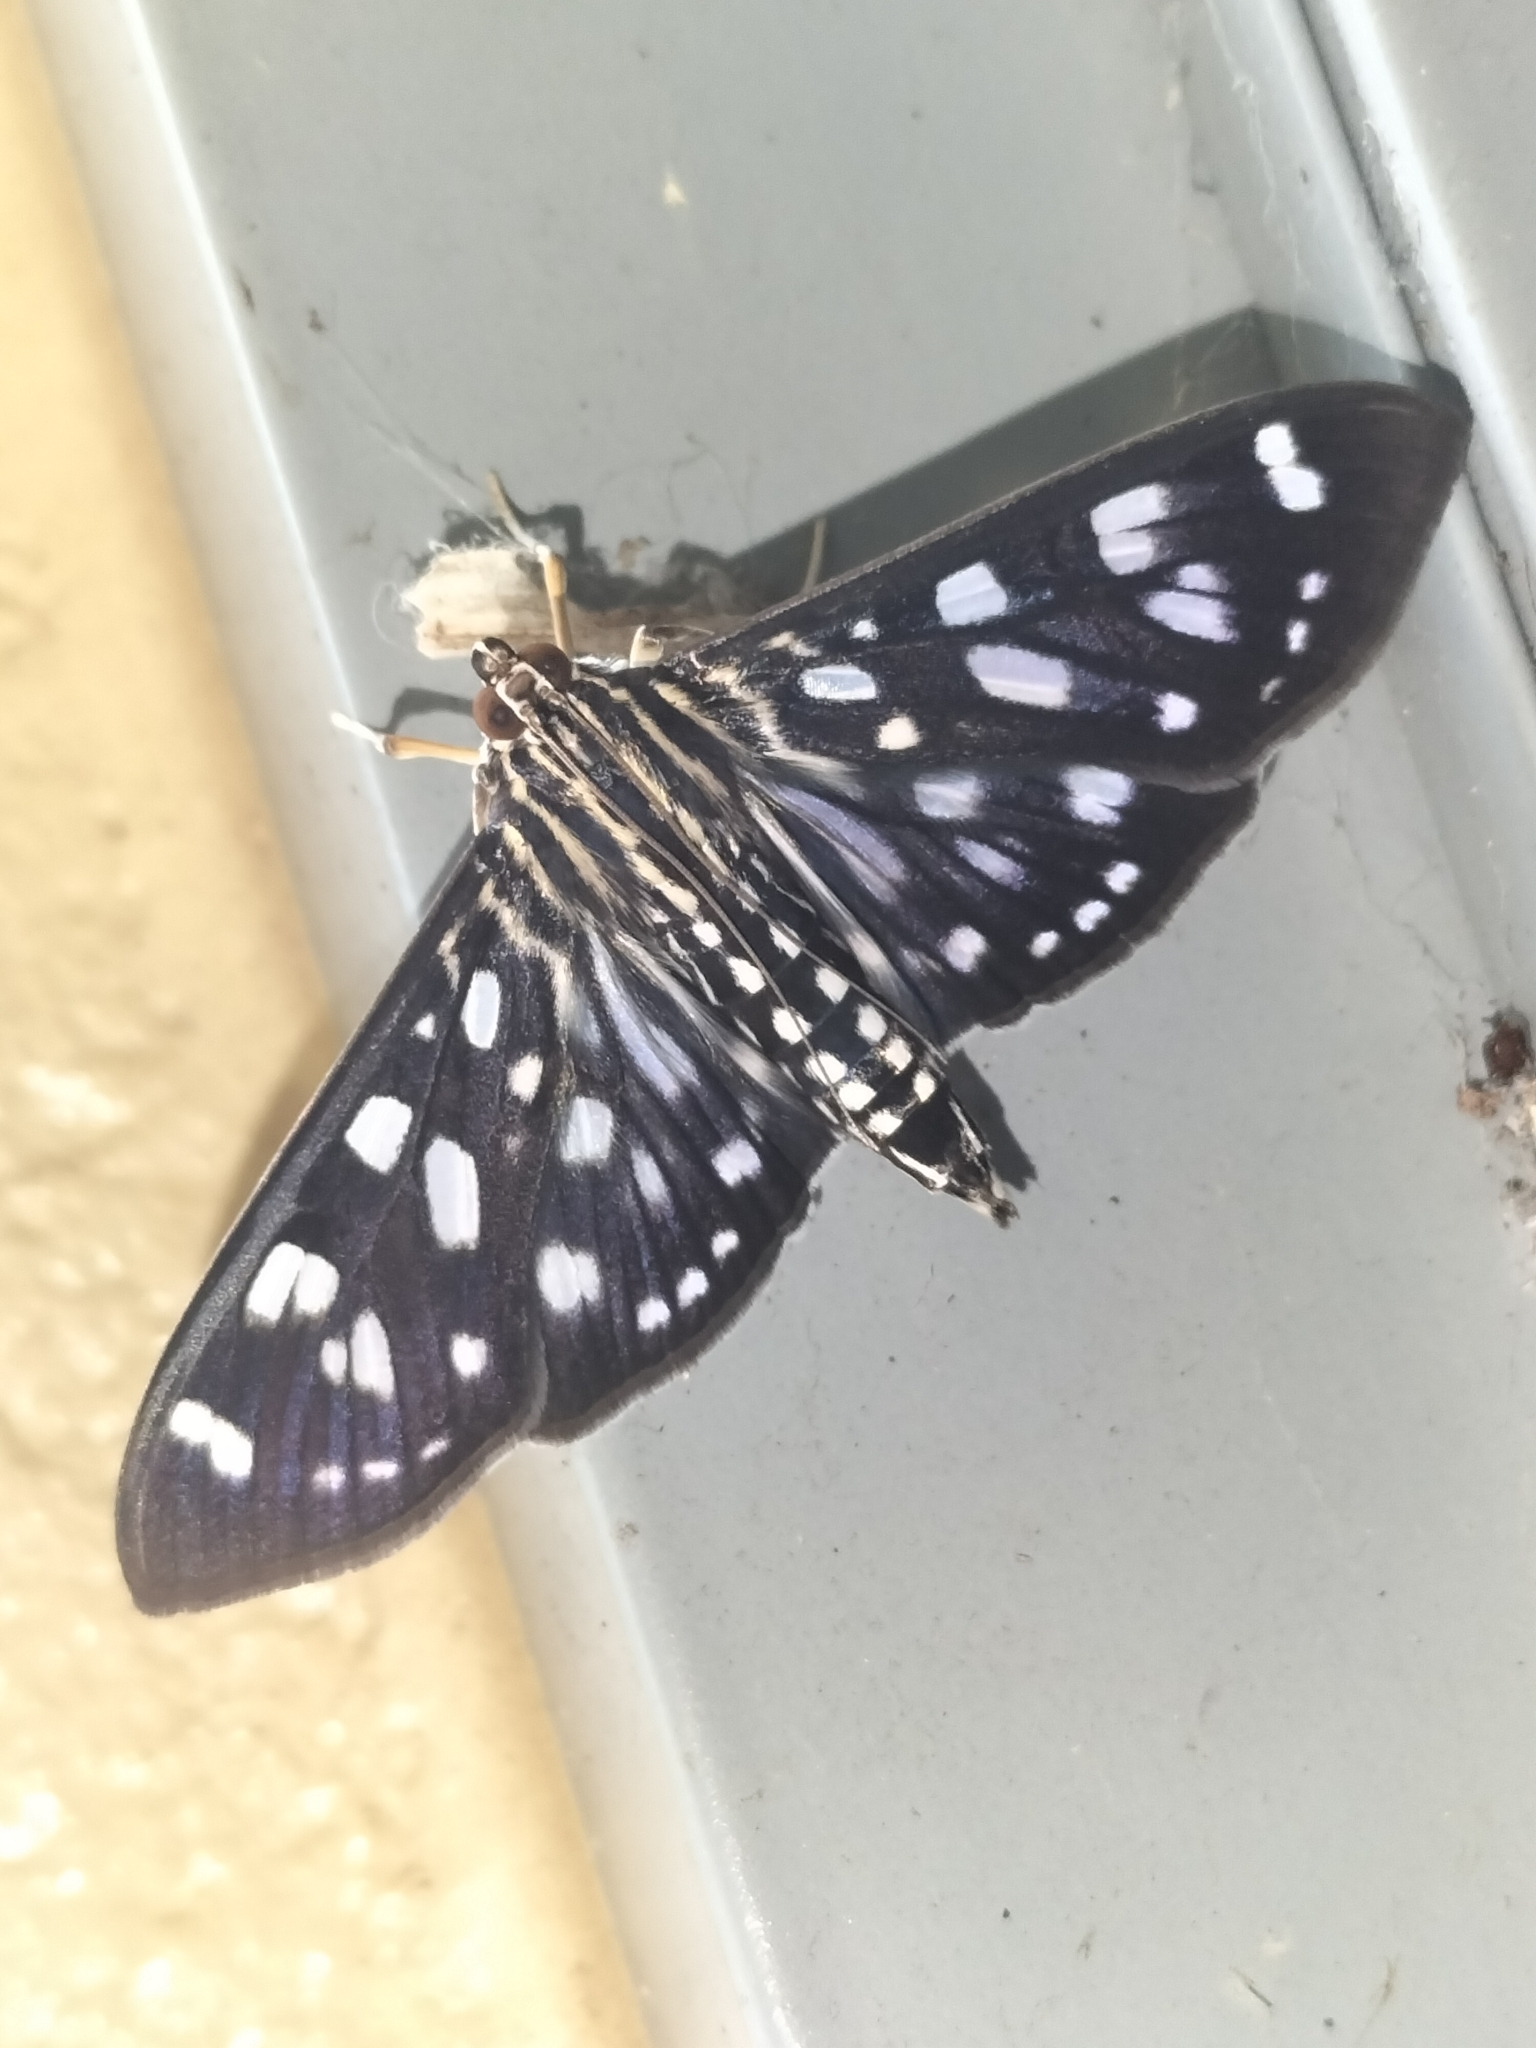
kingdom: Animalia
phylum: Arthropoda
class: Insecta
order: Lepidoptera
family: Crambidae
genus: Pygospila
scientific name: Pygospila tyres
